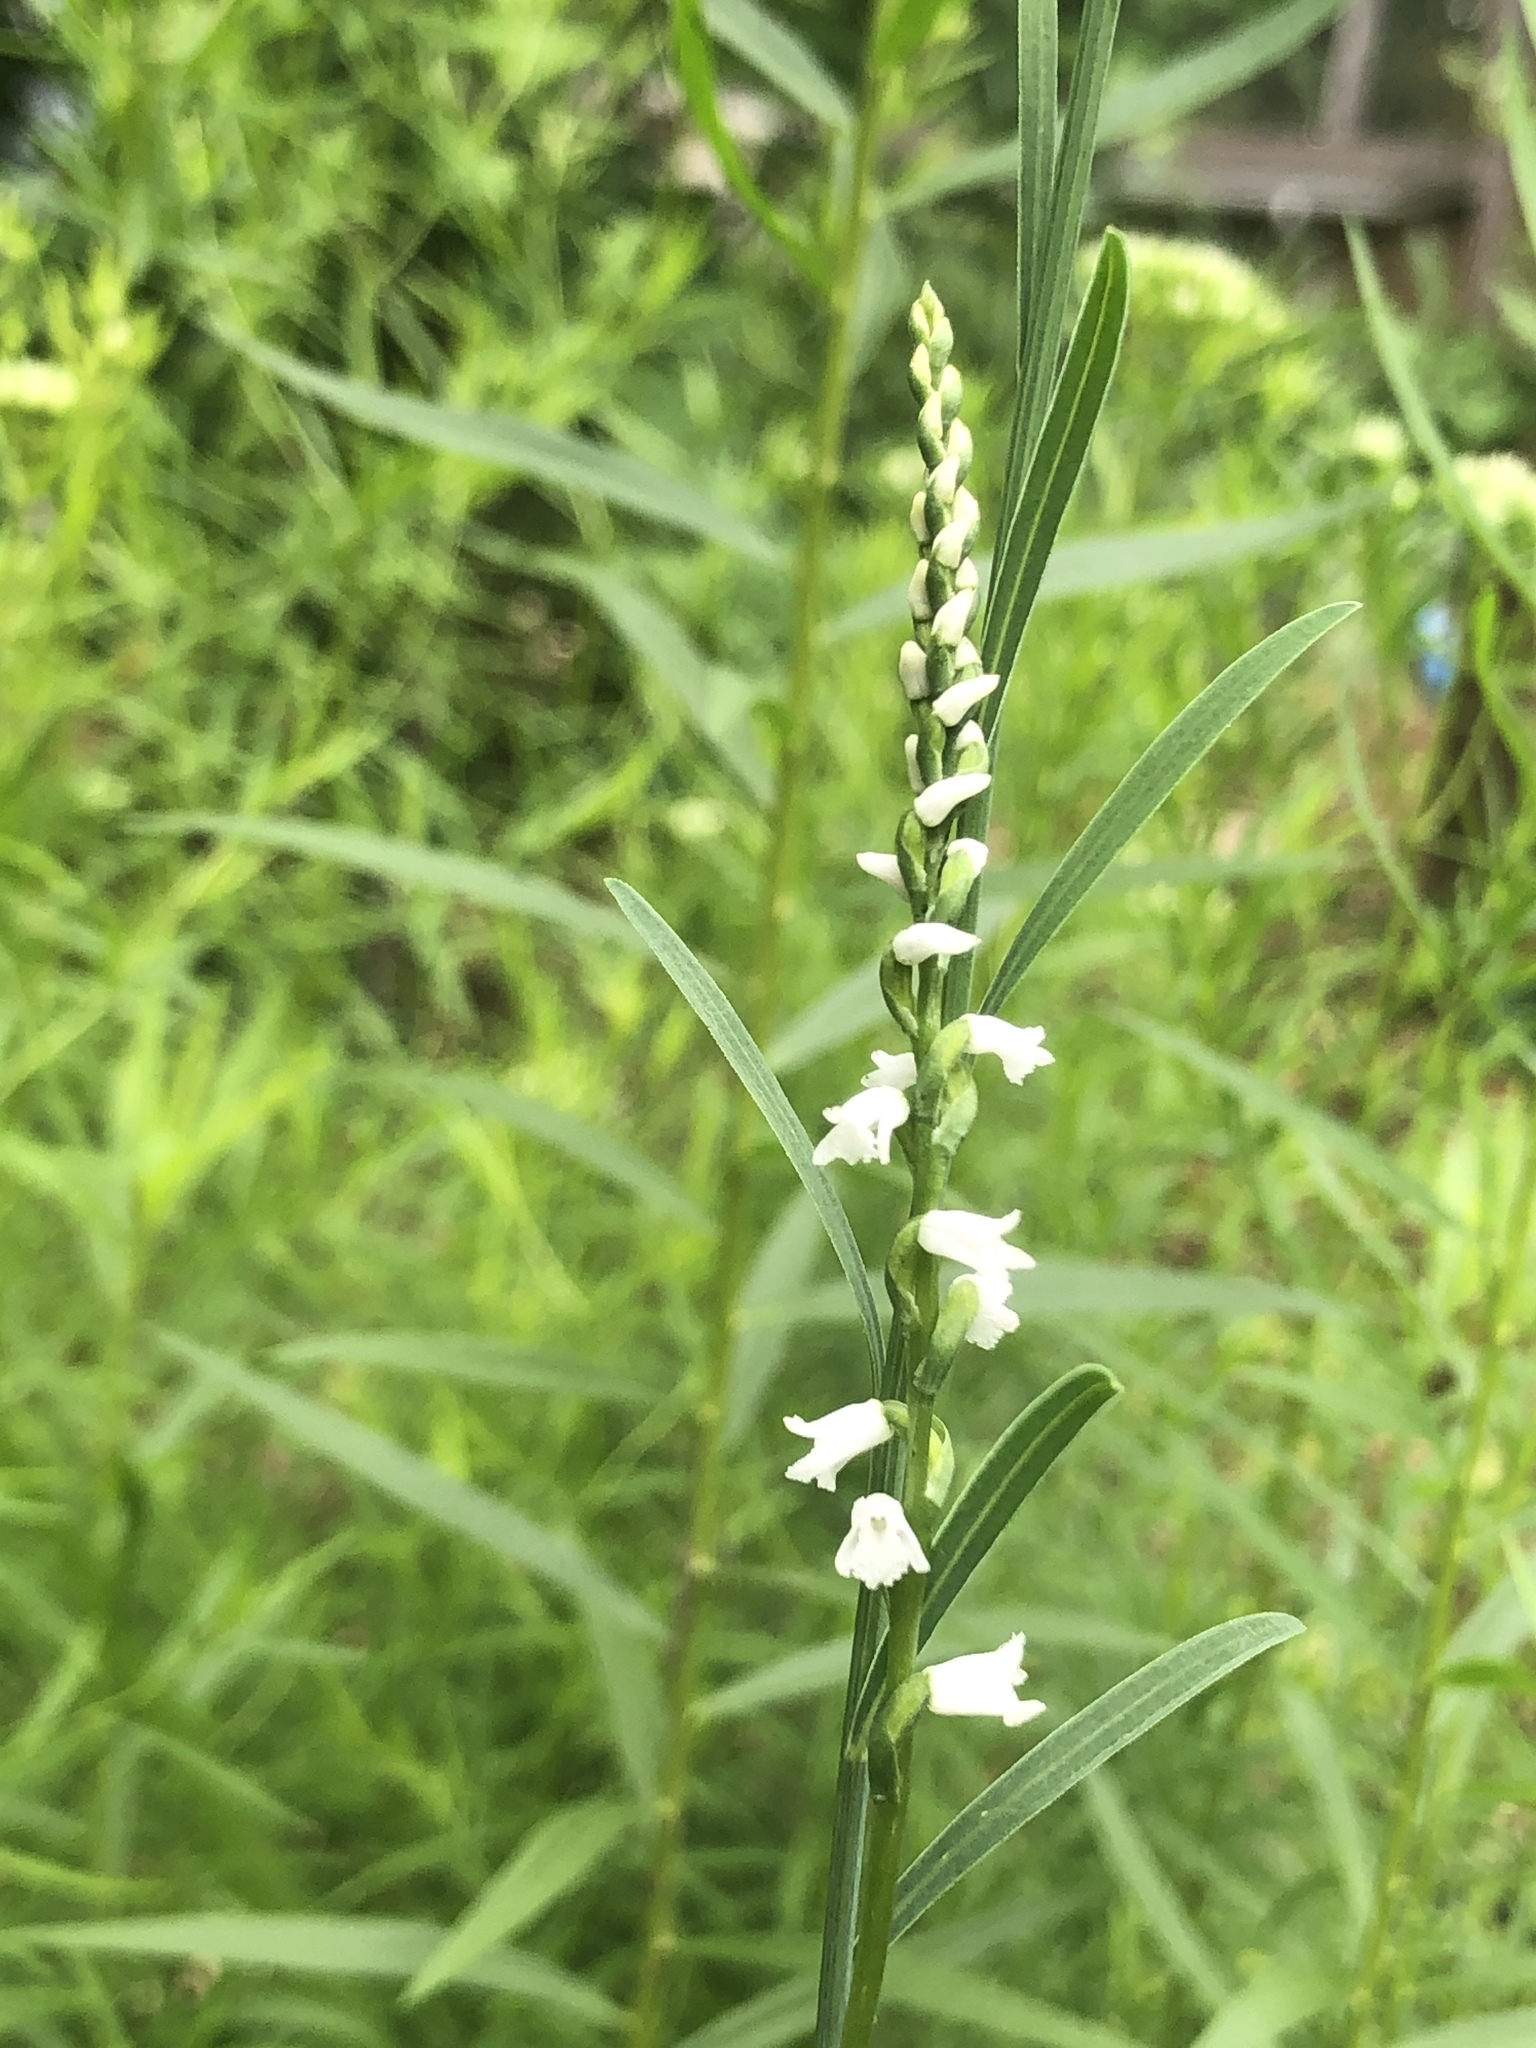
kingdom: Plantae
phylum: Tracheophyta
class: Liliopsida
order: Asparagales
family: Orchidaceae
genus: Spiranthes
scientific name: Spiranthes tuberosa
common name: Little ladies'-tresses
